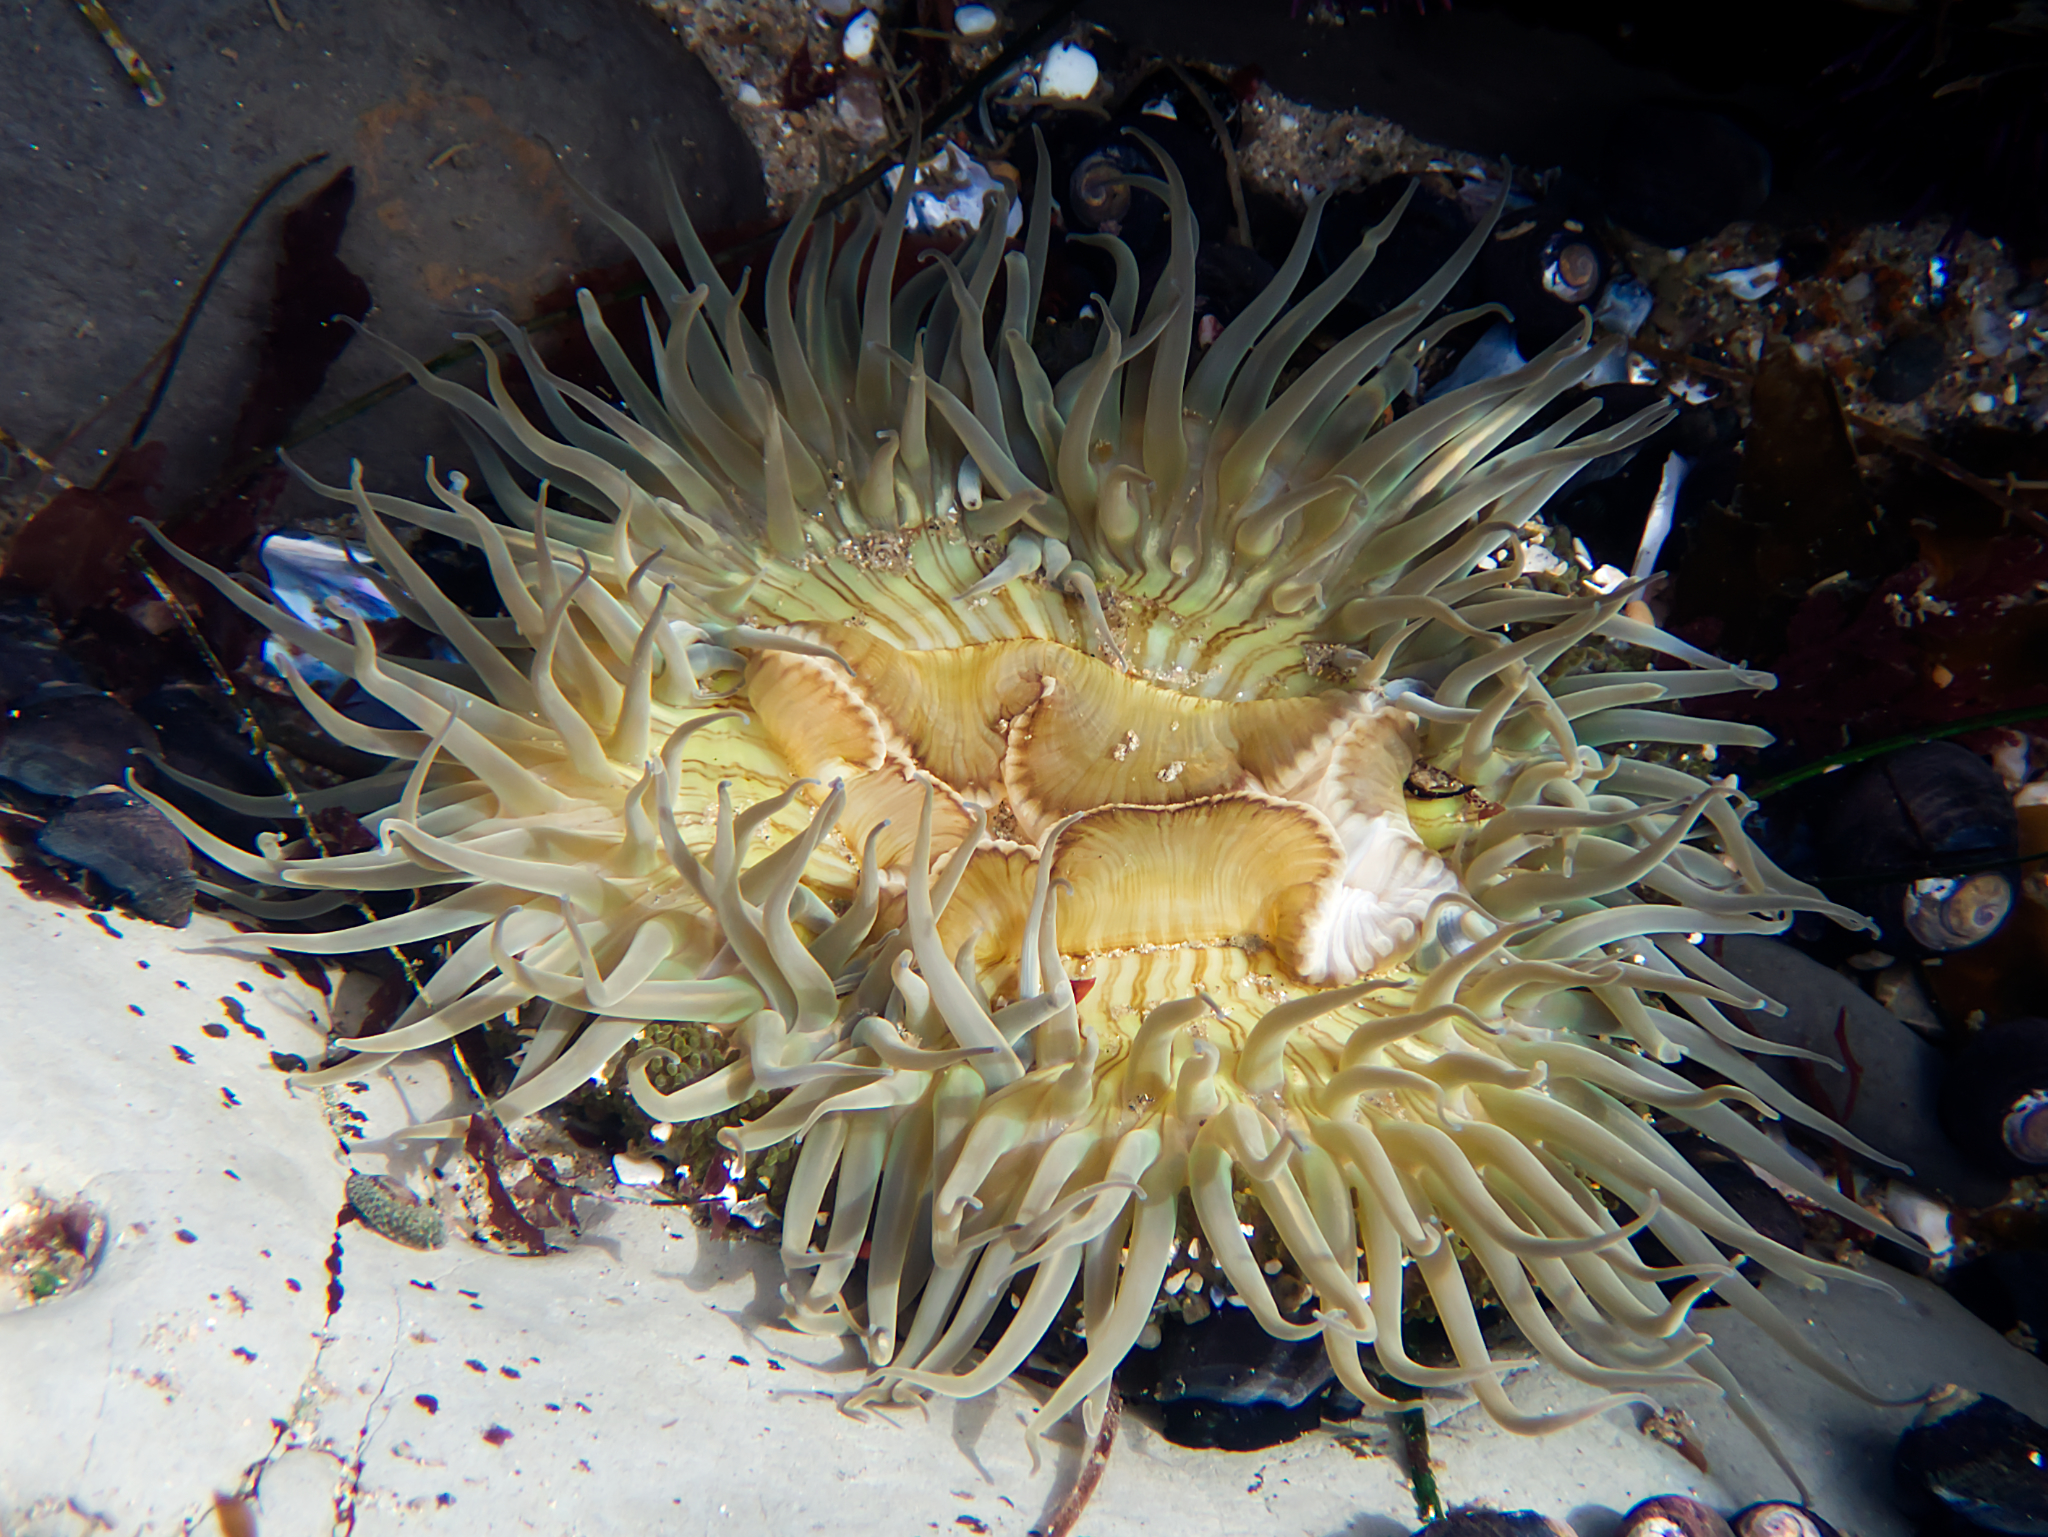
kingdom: Animalia
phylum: Cnidaria
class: Anthozoa
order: Actiniaria
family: Actiniidae
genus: Anthopleura
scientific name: Anthopleura sola
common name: Sun anemone
